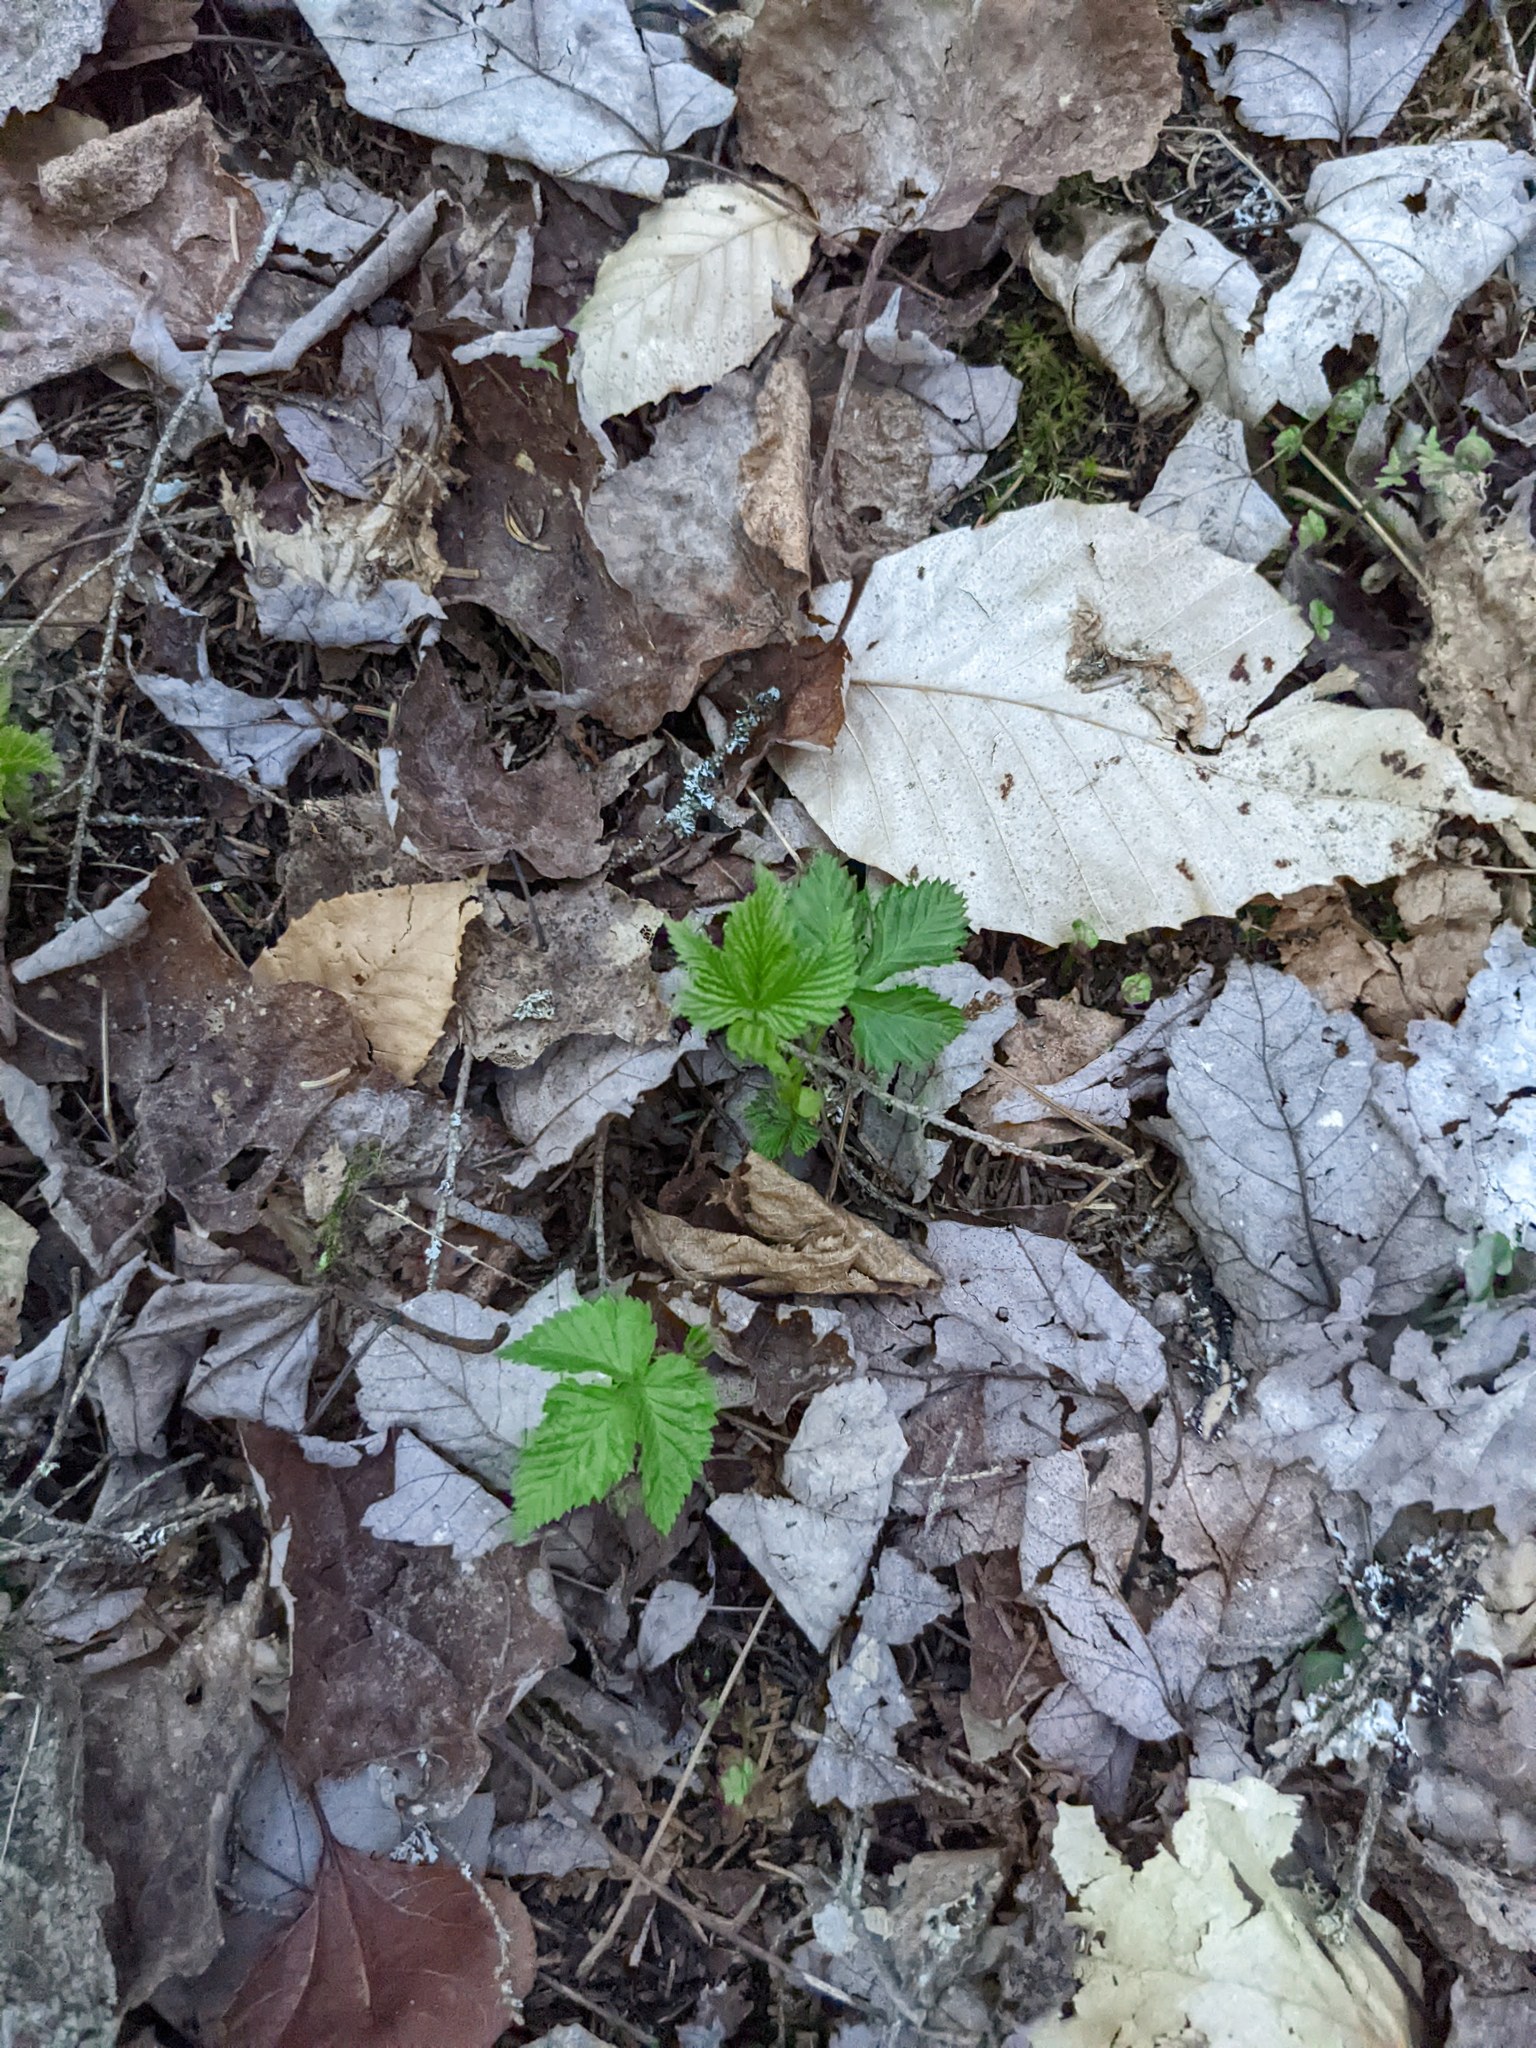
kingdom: Plantae
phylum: Tracheophyta
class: Magnoliopsida
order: Fagales
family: Fagaceae
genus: Fagus
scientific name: Fagus grandifolia
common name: American beech
